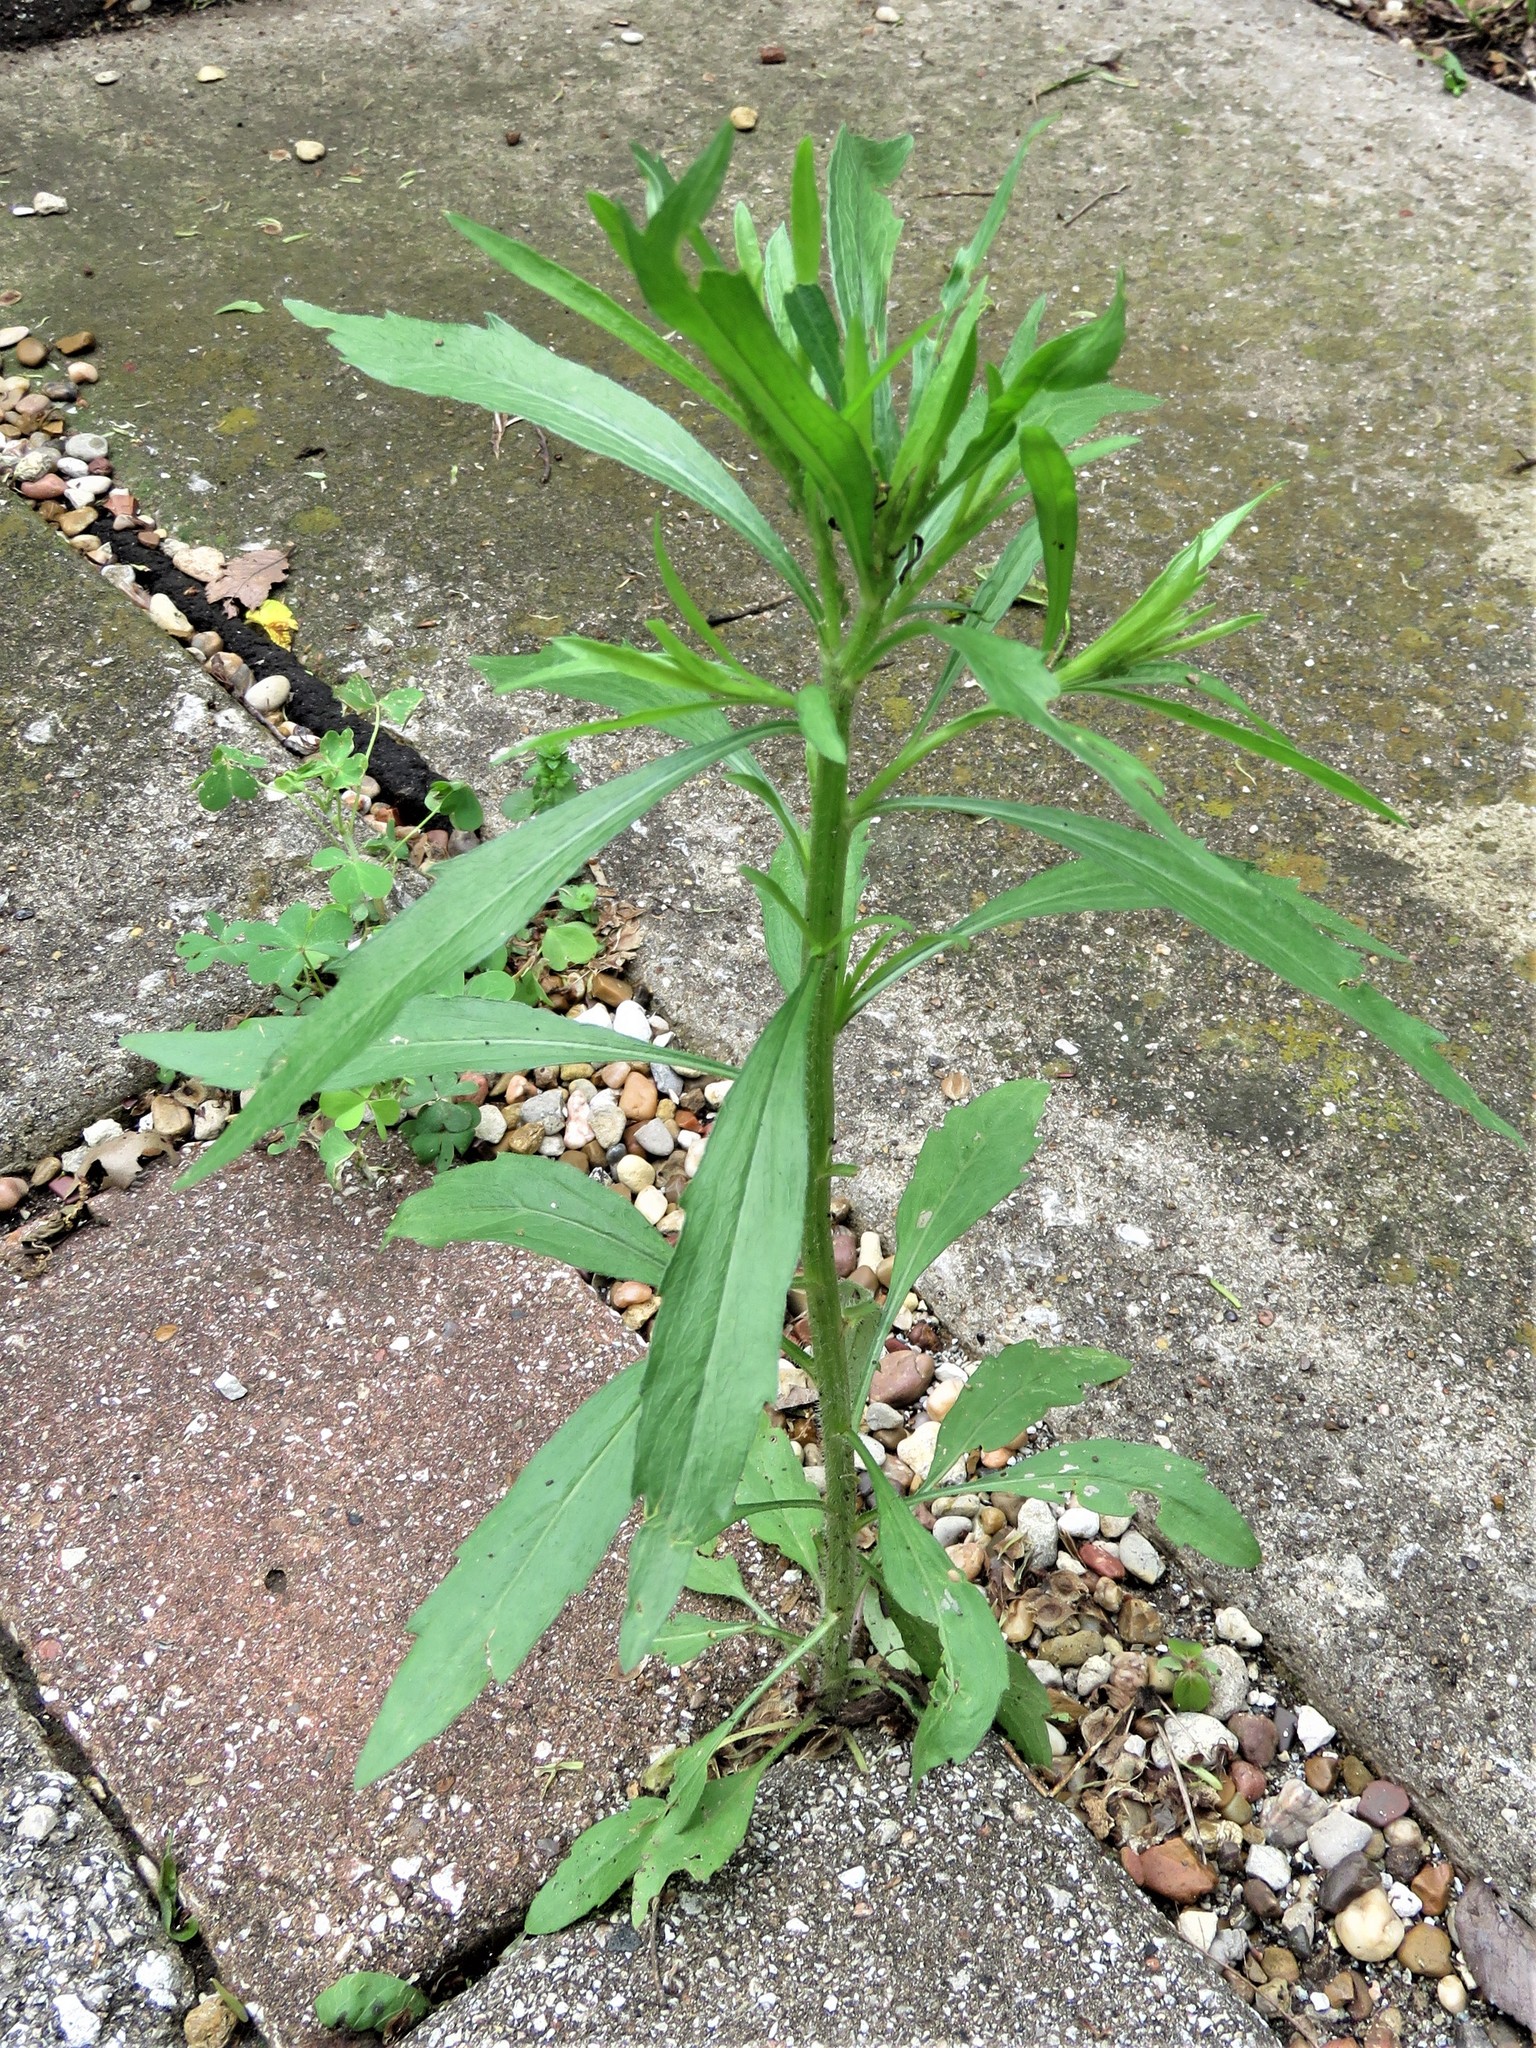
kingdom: Plantae
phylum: Tracheophyta
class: Magnoliopsida
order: Asterales
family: Asteraceae
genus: Erigeron
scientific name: Erigeron canadensis
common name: Canadian fleabane
